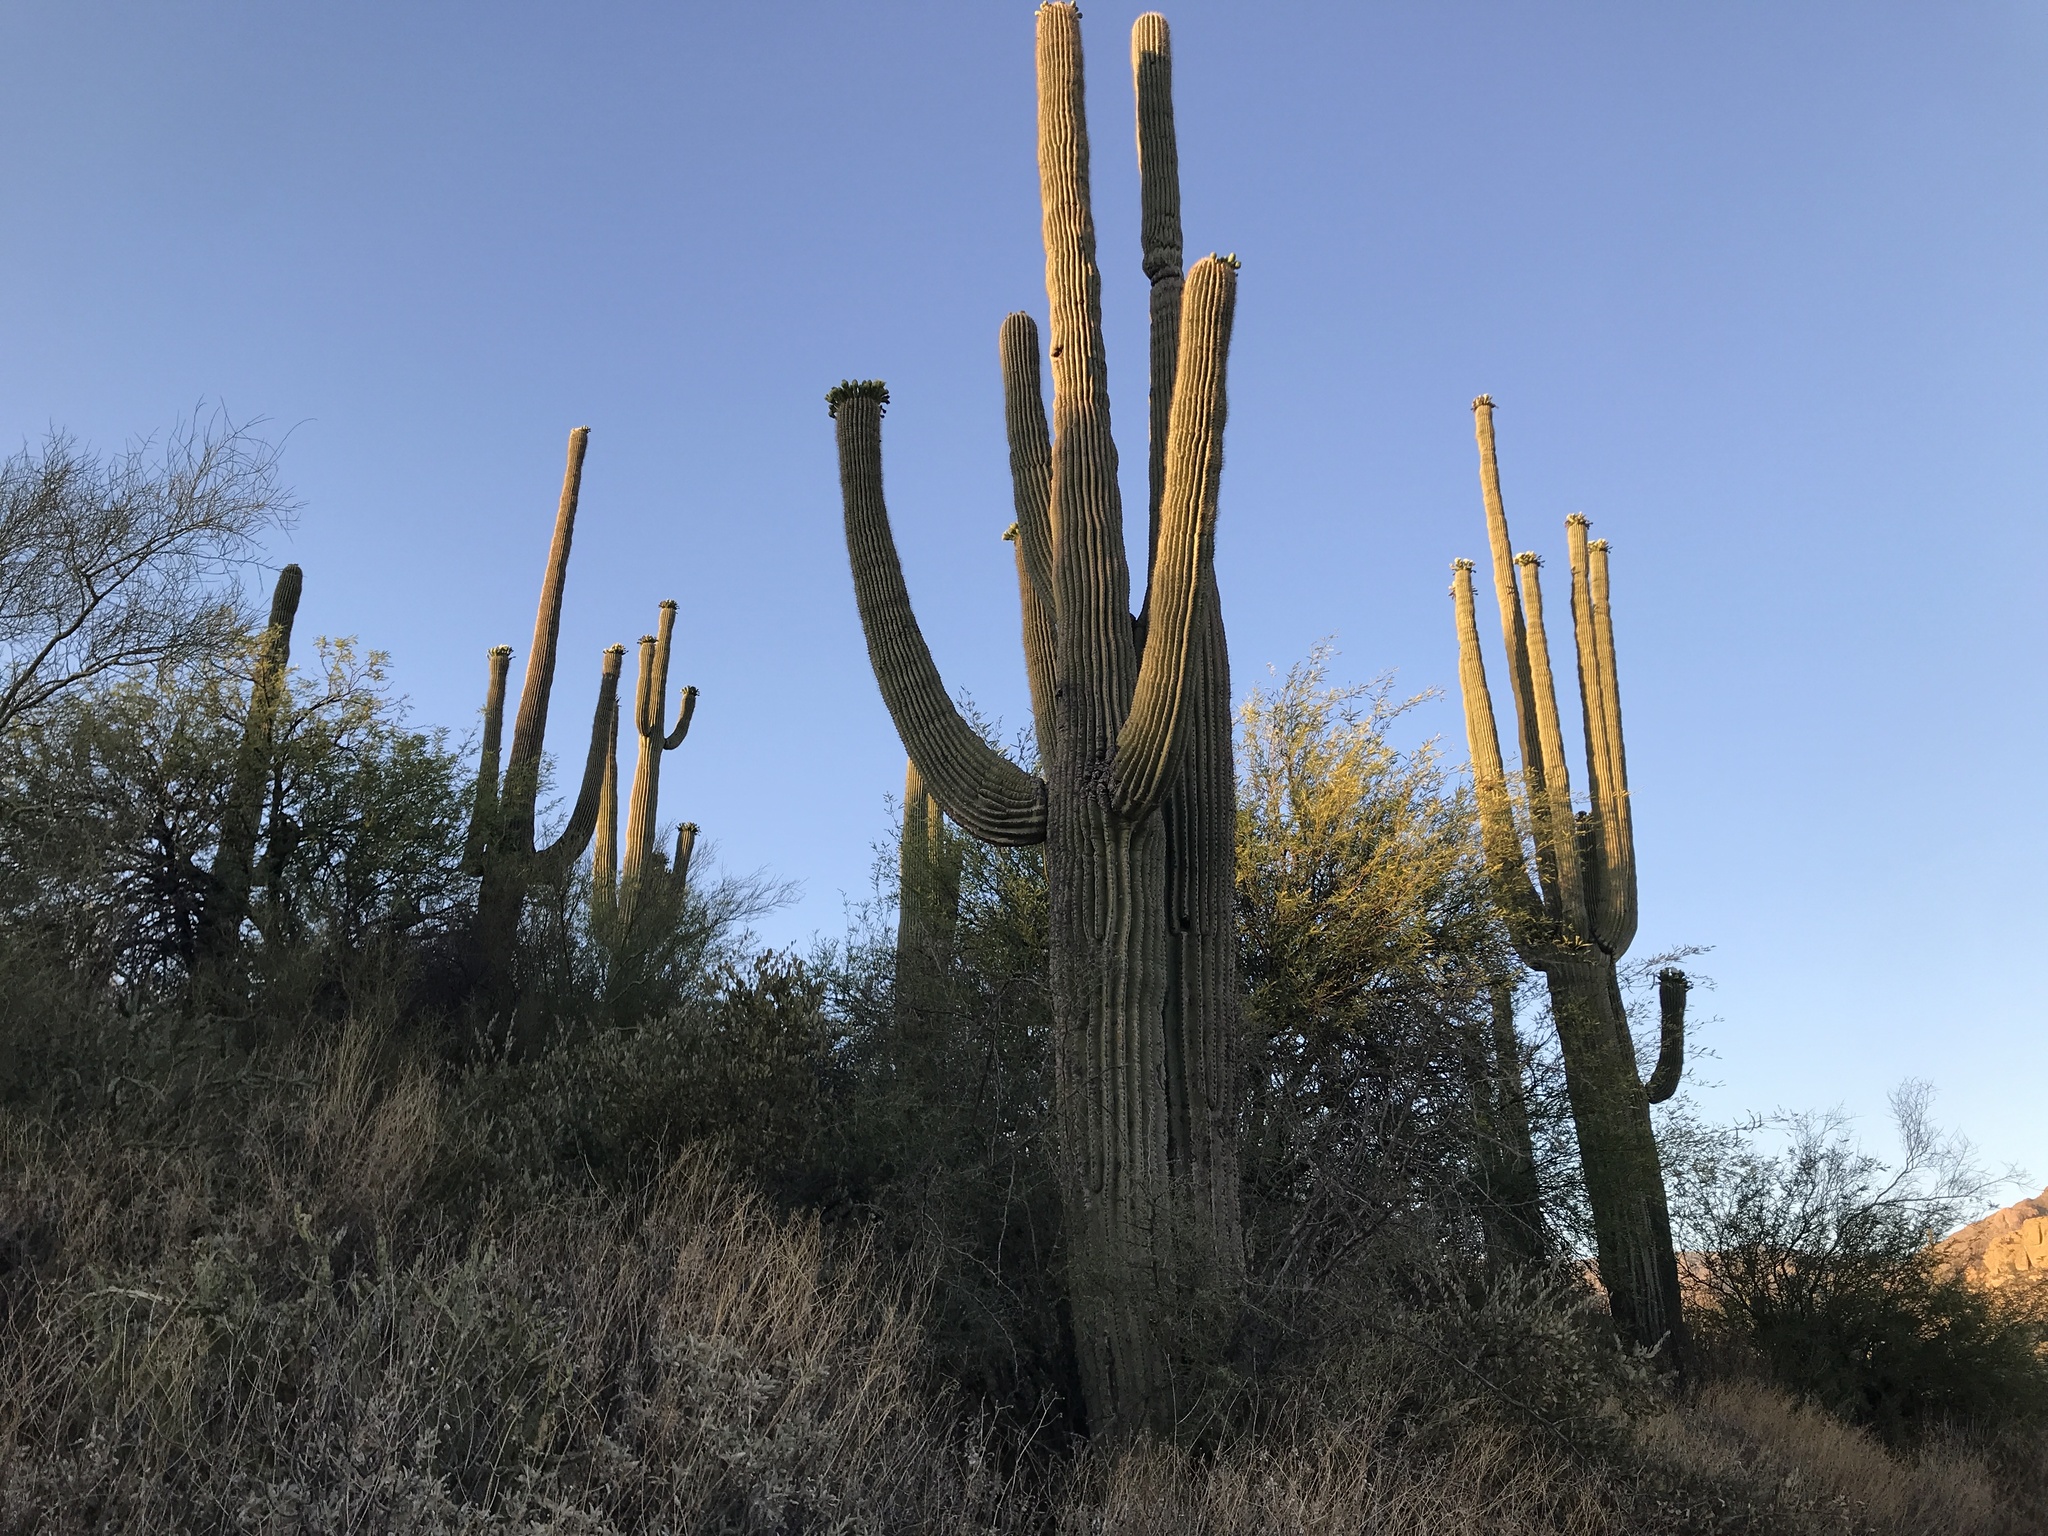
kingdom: Plantae
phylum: Tracheophyta
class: Magnoliopsida
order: Caryophyllales
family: Cactaceae
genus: Carnegiea
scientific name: Carnegiea gigantea
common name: Saguaro
